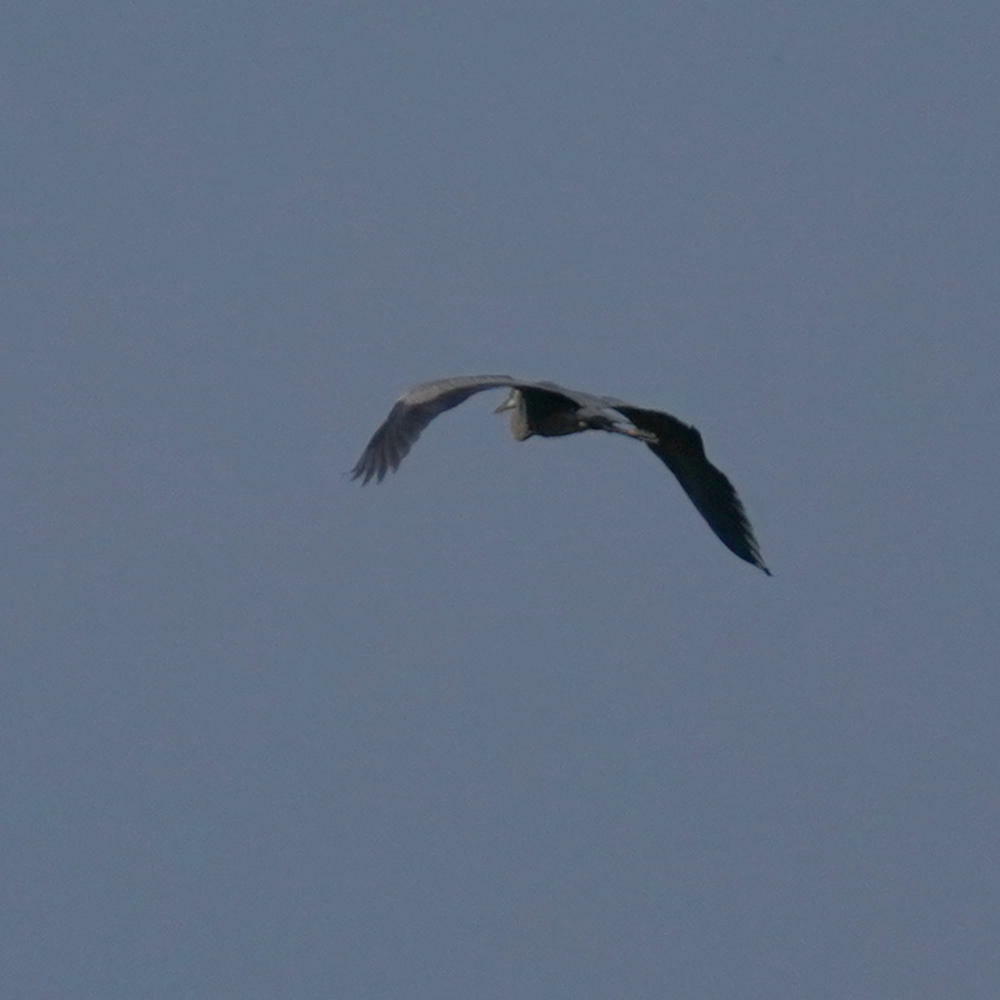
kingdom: Animalia
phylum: Chordata
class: Aves
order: Pelecaniformes
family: Ardeidae
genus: Ardea
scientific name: Ardea herodias
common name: Great blue heron
